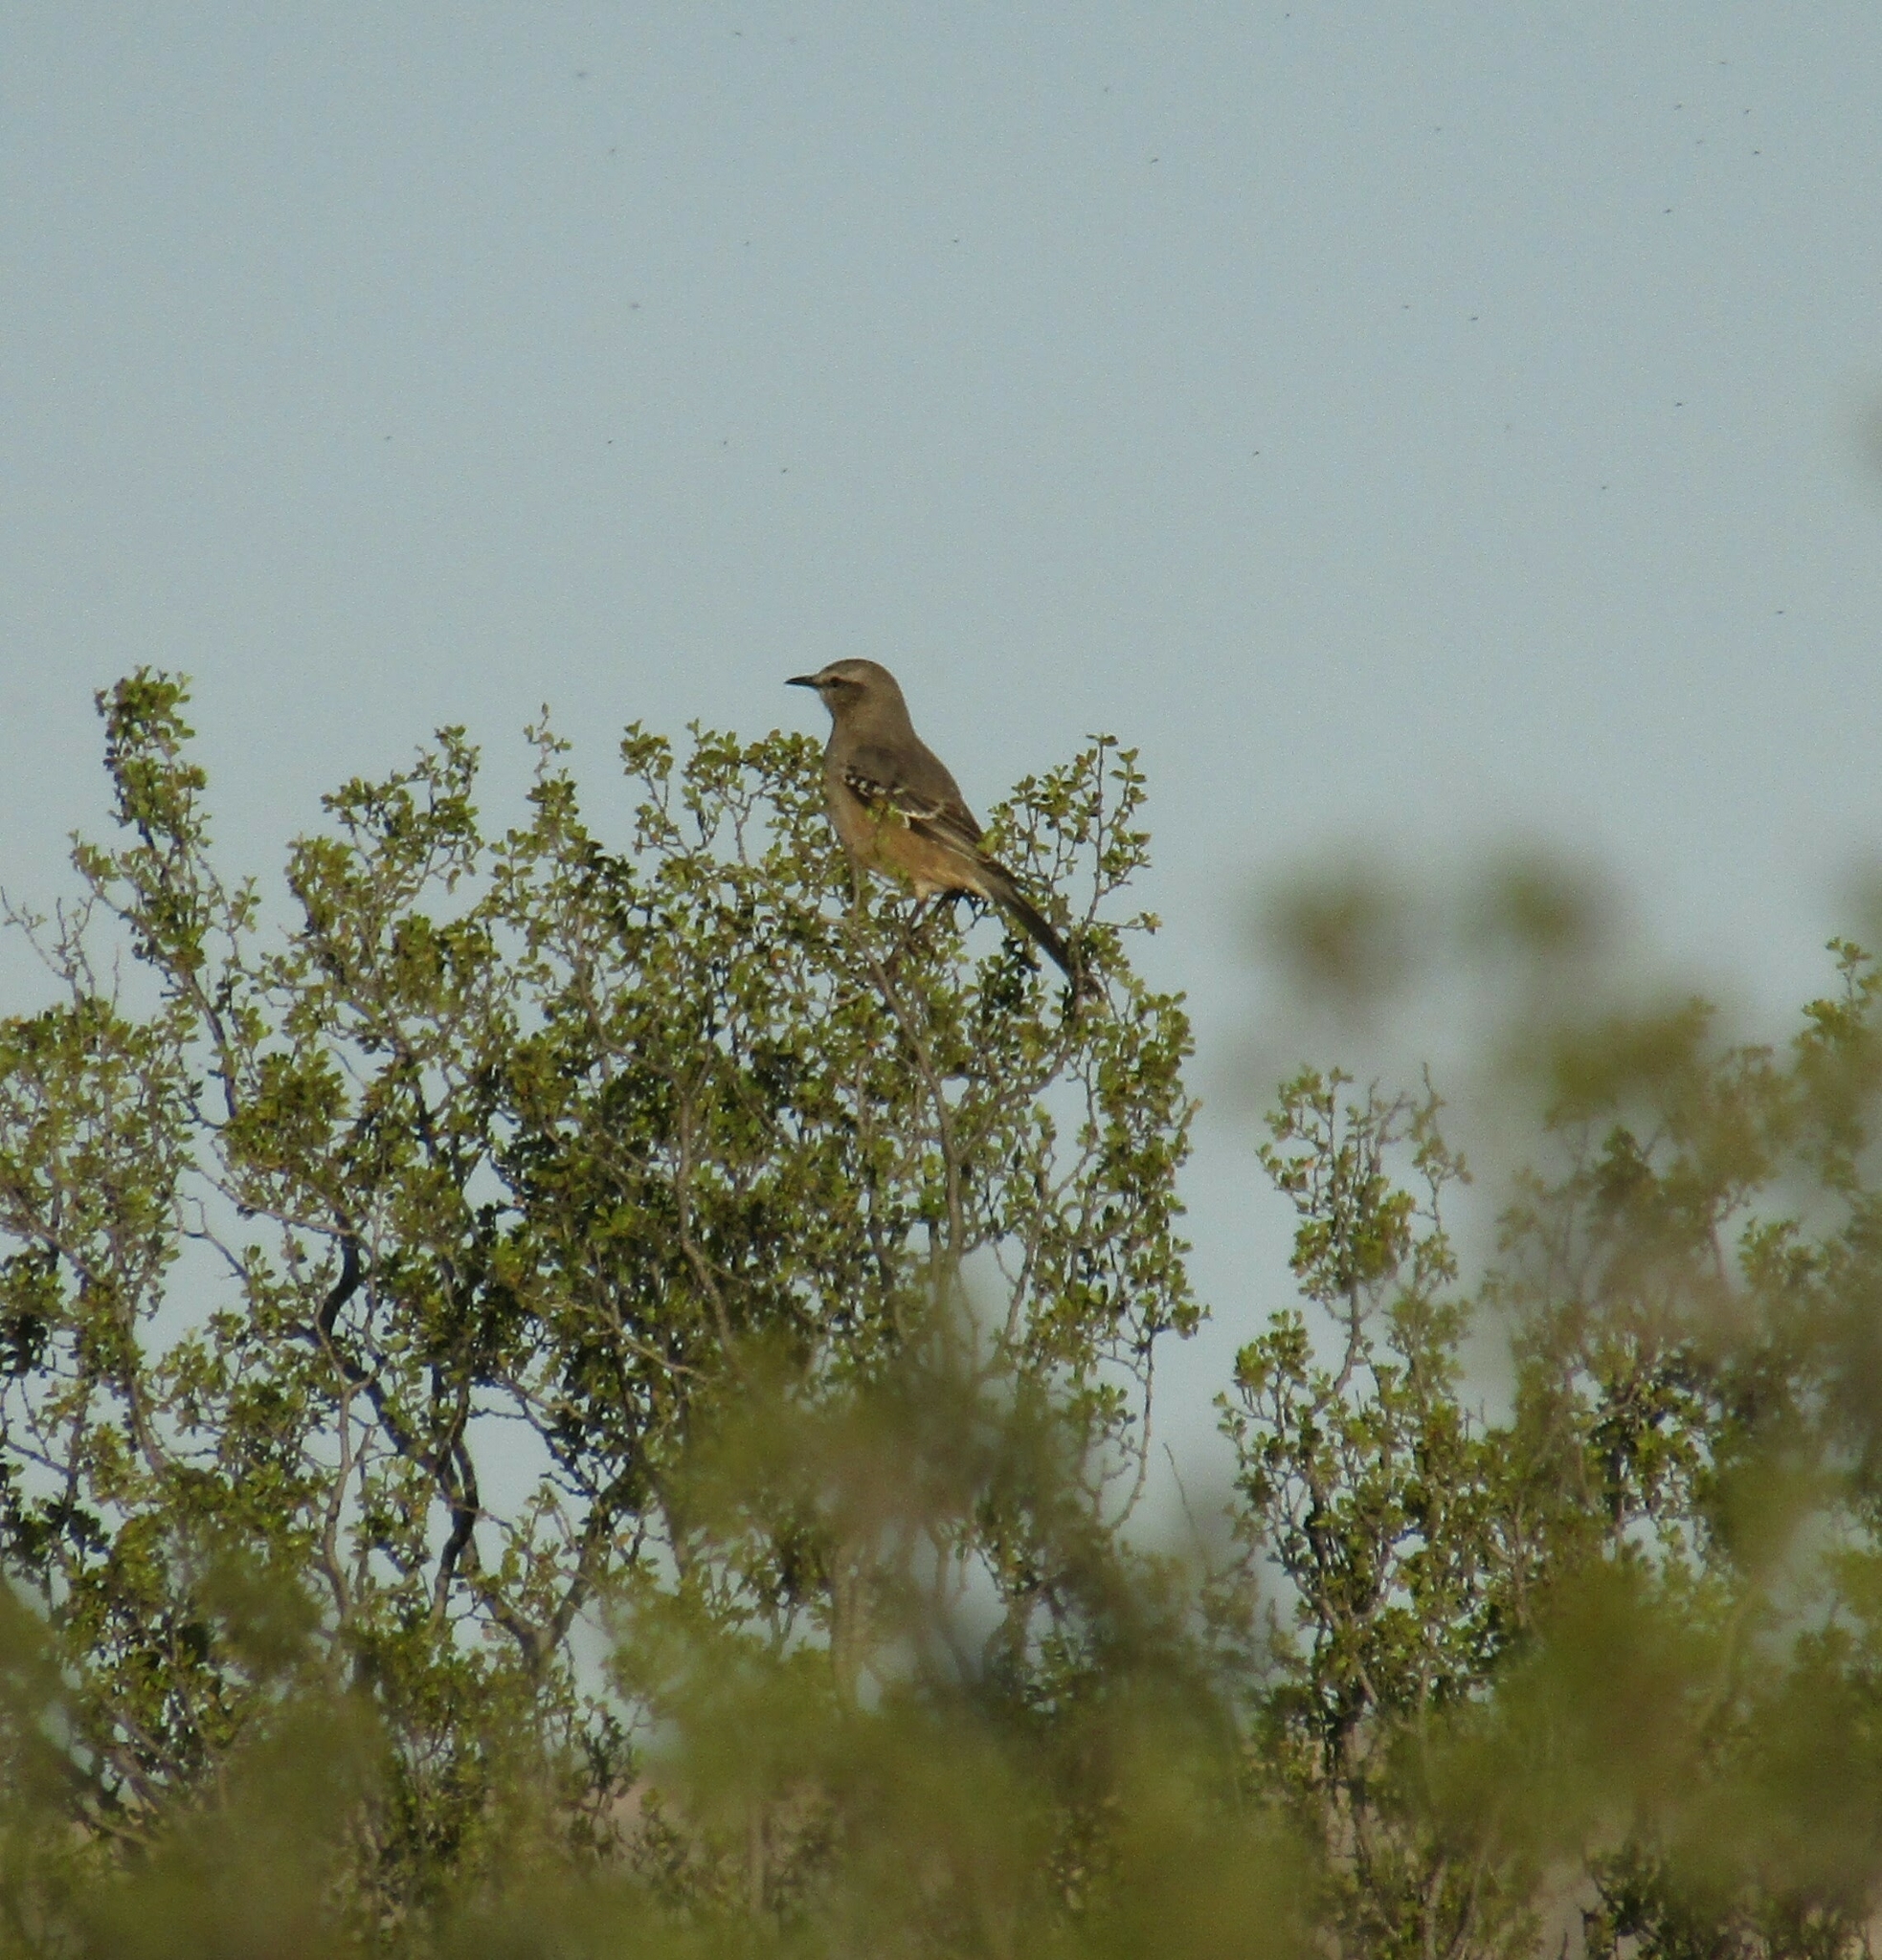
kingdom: Animalia
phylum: Chordata
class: Aves
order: Passeriformes
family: Mimidae
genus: Mimus
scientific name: Mimus patagonicus
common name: Patagonian mockingbird
